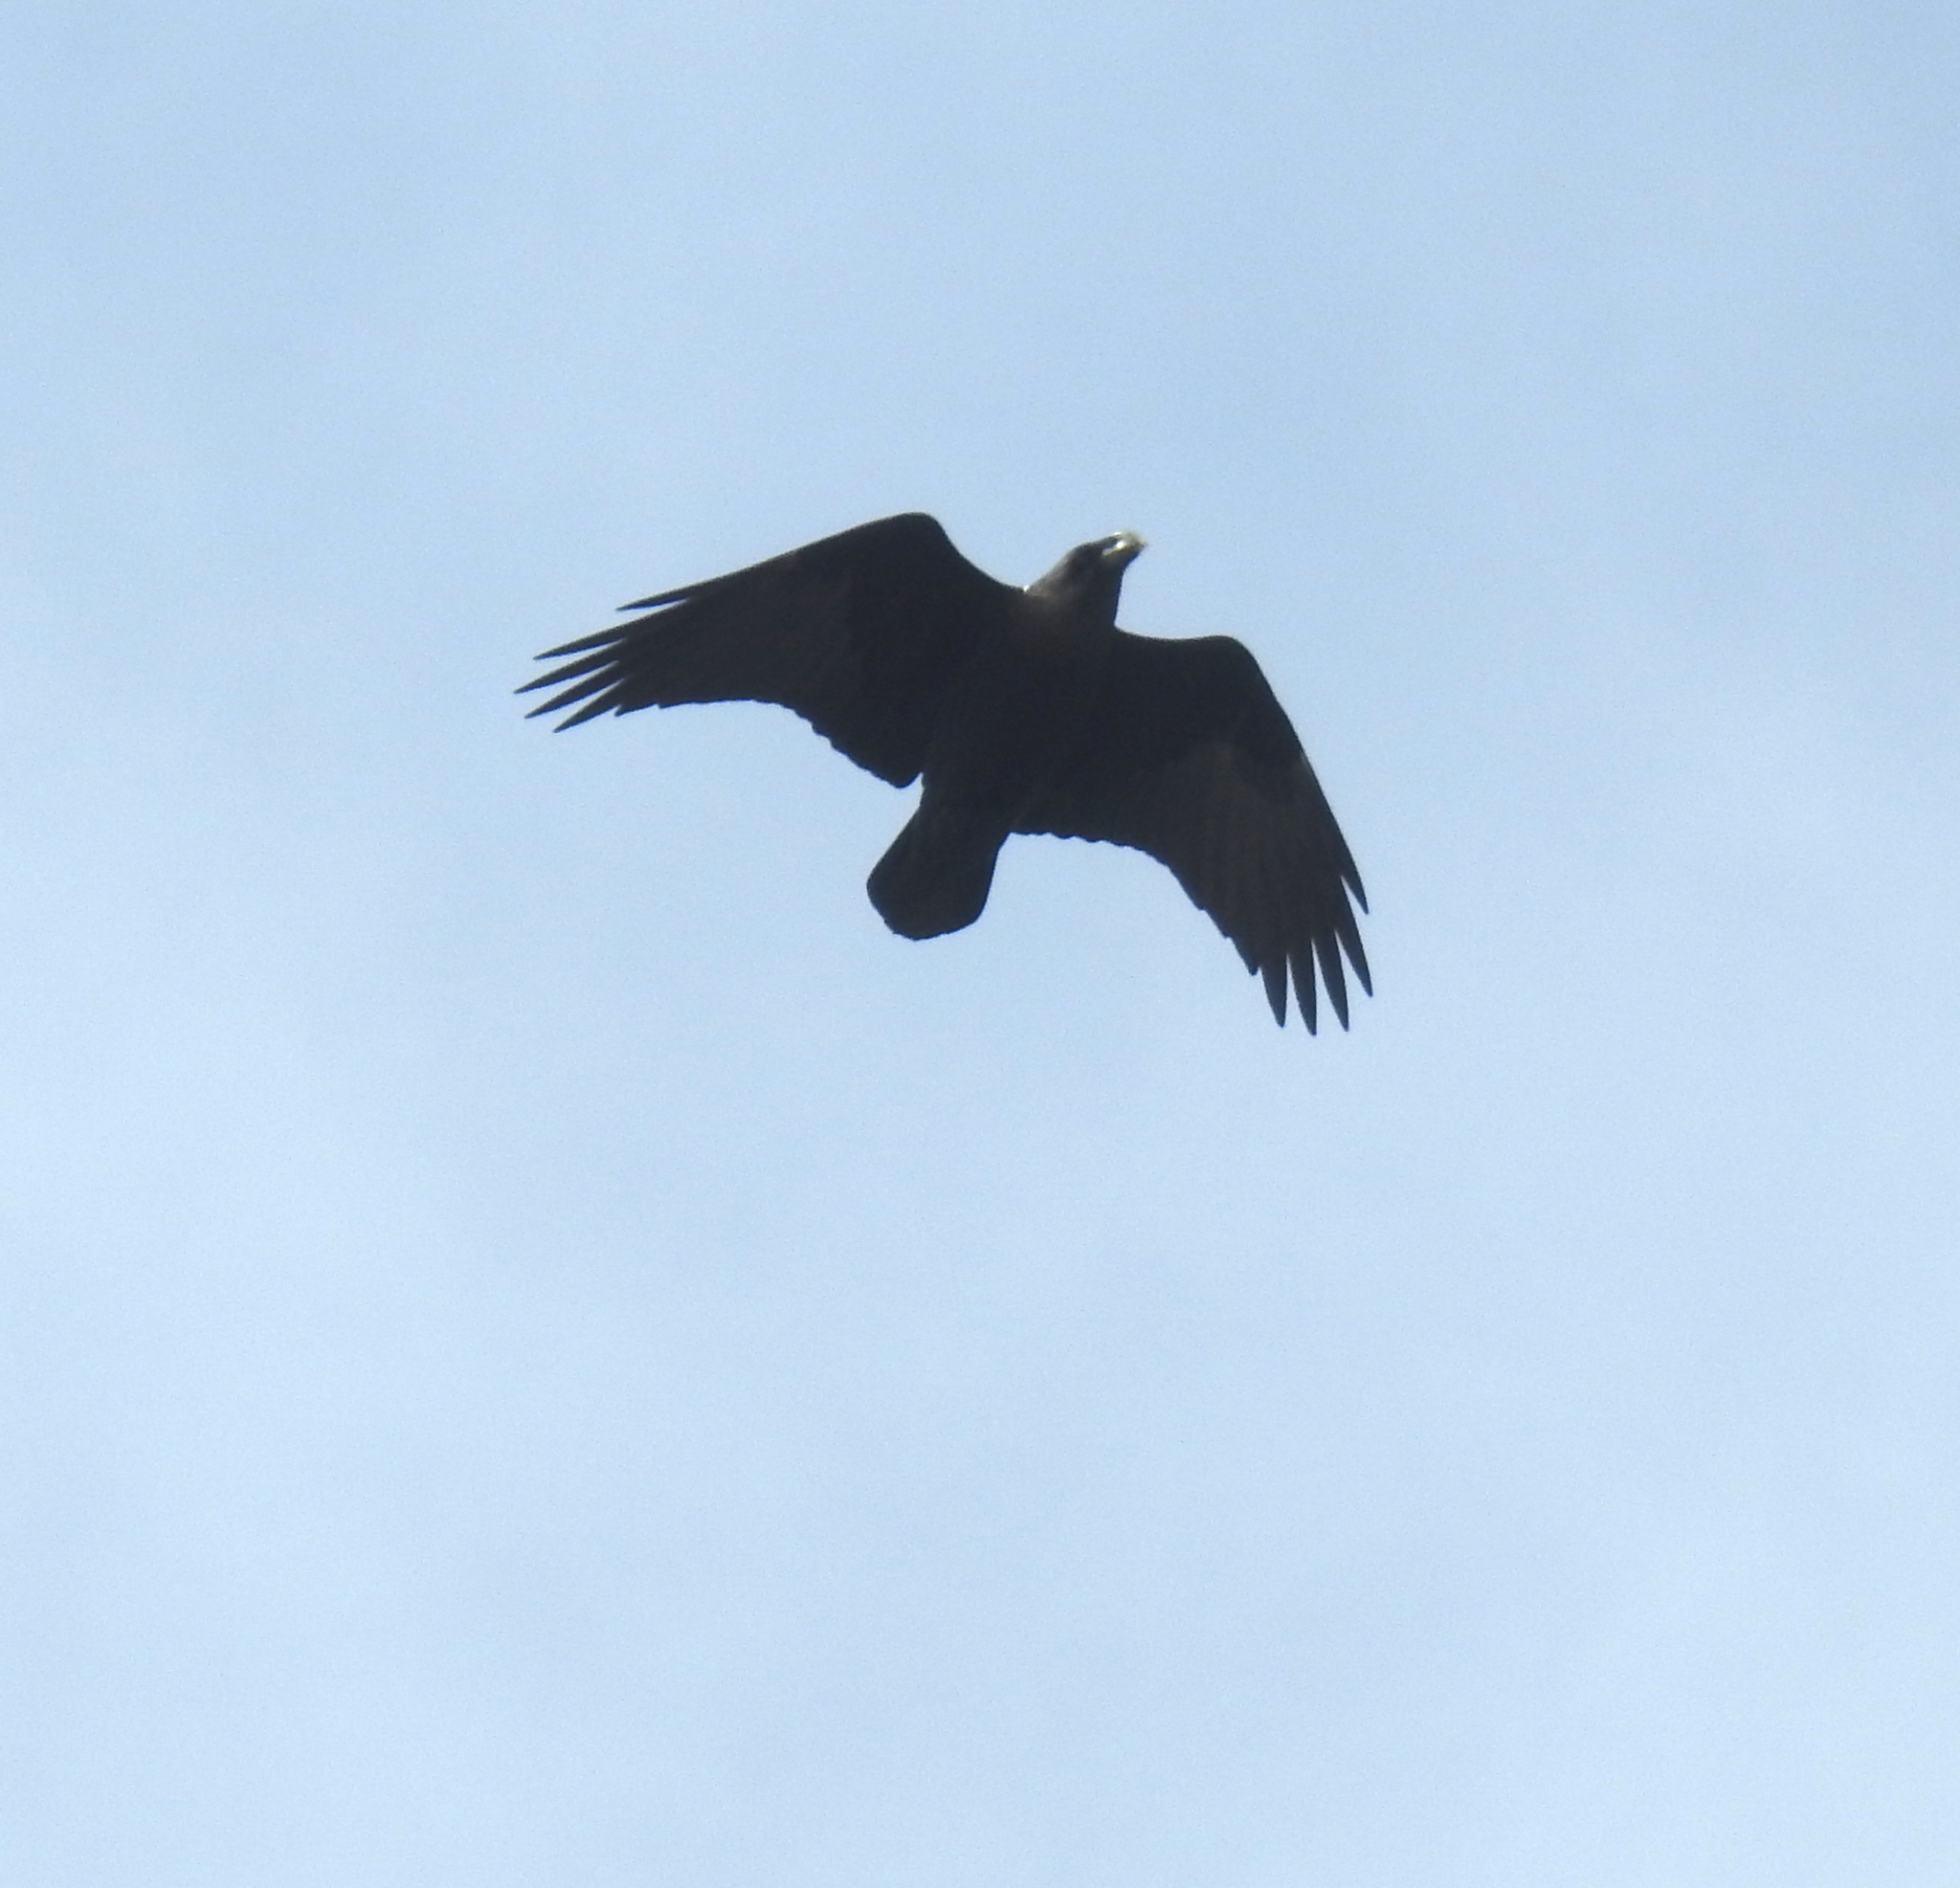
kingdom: Animalia
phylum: Chordata
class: Aves
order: Passeriformes
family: Corvidae
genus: Corvus
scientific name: Corvus albicollis
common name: White-necked raven
